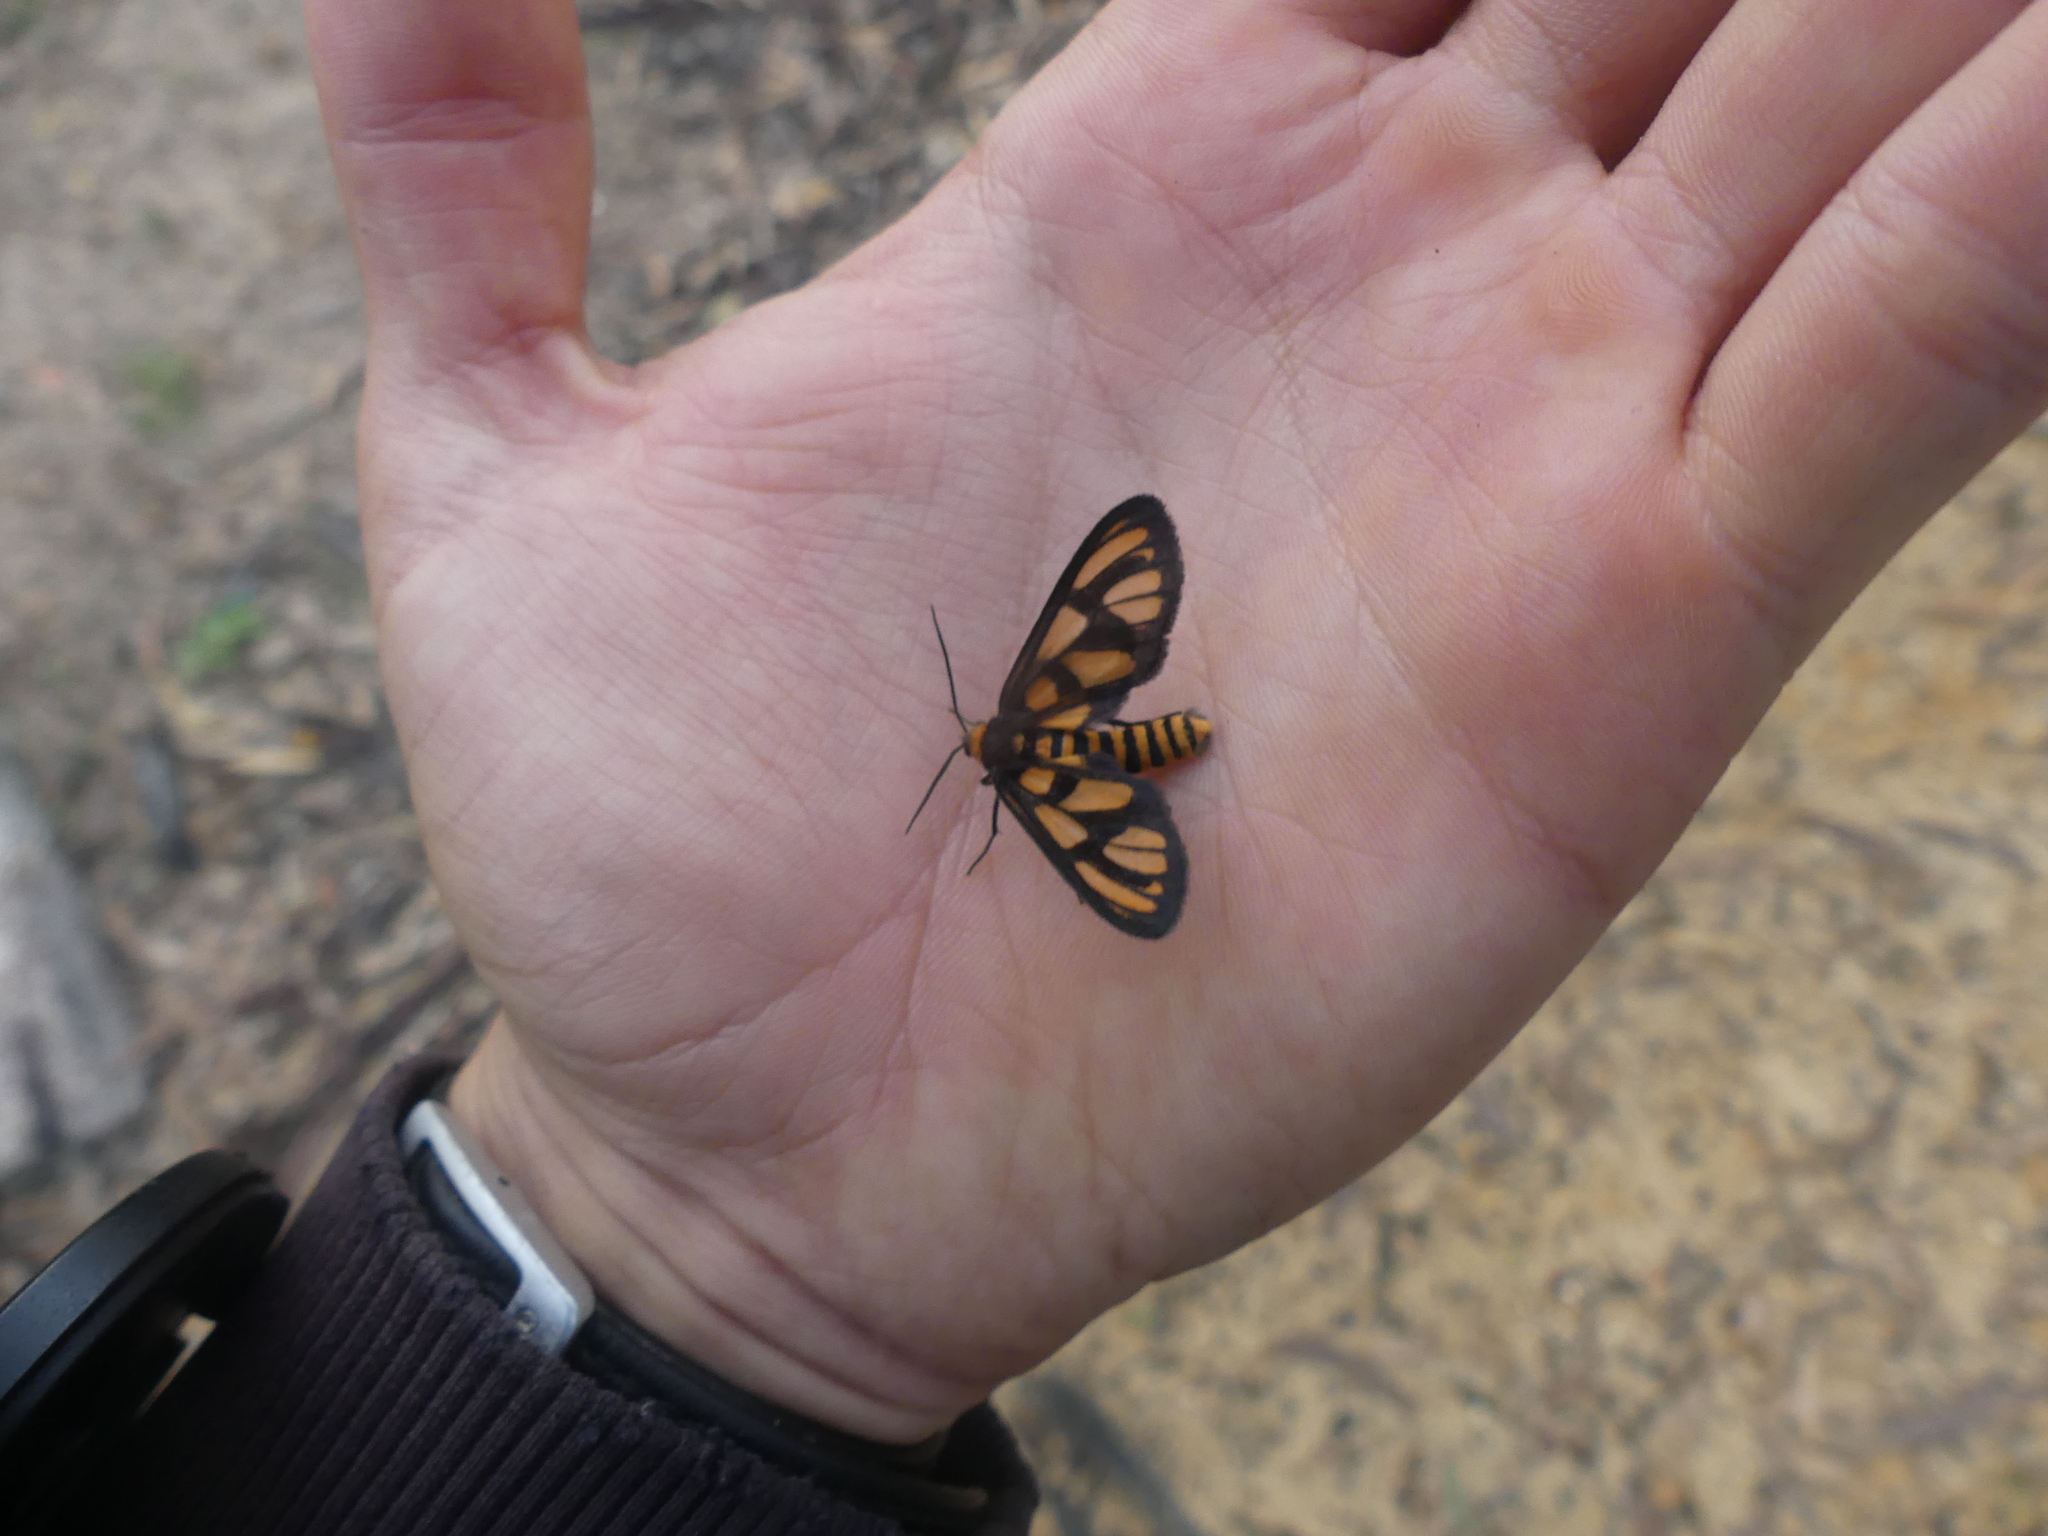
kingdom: Animalia
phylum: Arthropoda
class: Insecta
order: Lepidoptera
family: Erebidae
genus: Amata
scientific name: Amata aperta
